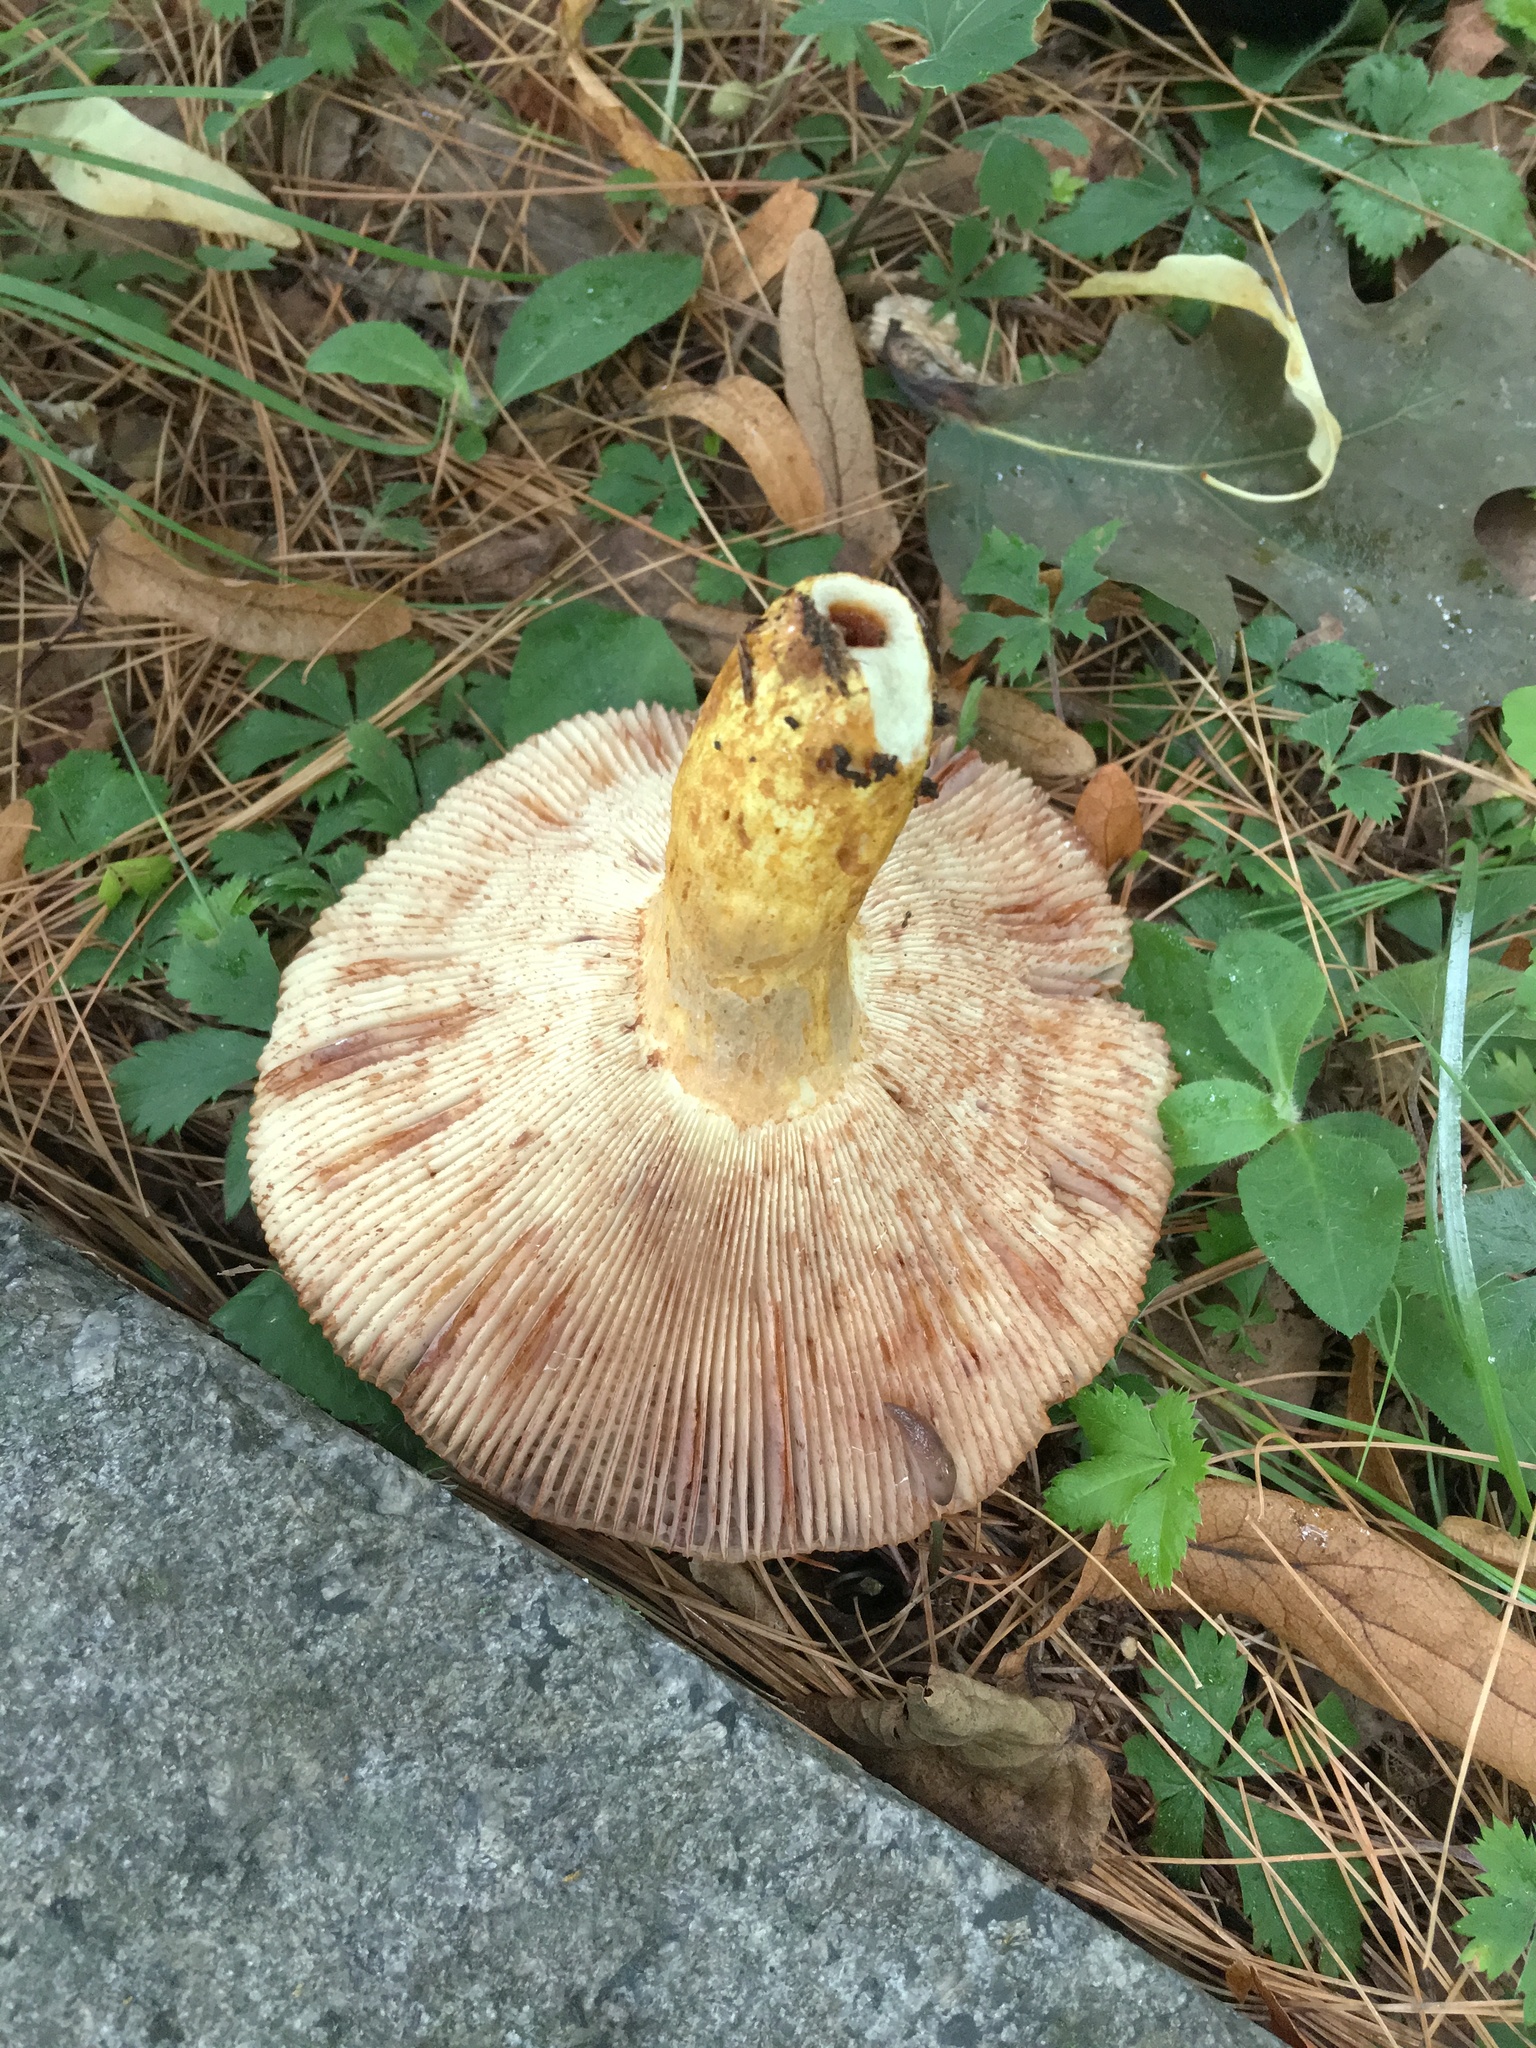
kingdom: Fungi
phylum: Basidiomycota
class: Agaricomycetes
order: Russulales
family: Russulaceae
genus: Russula
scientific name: Russula mutabilis
